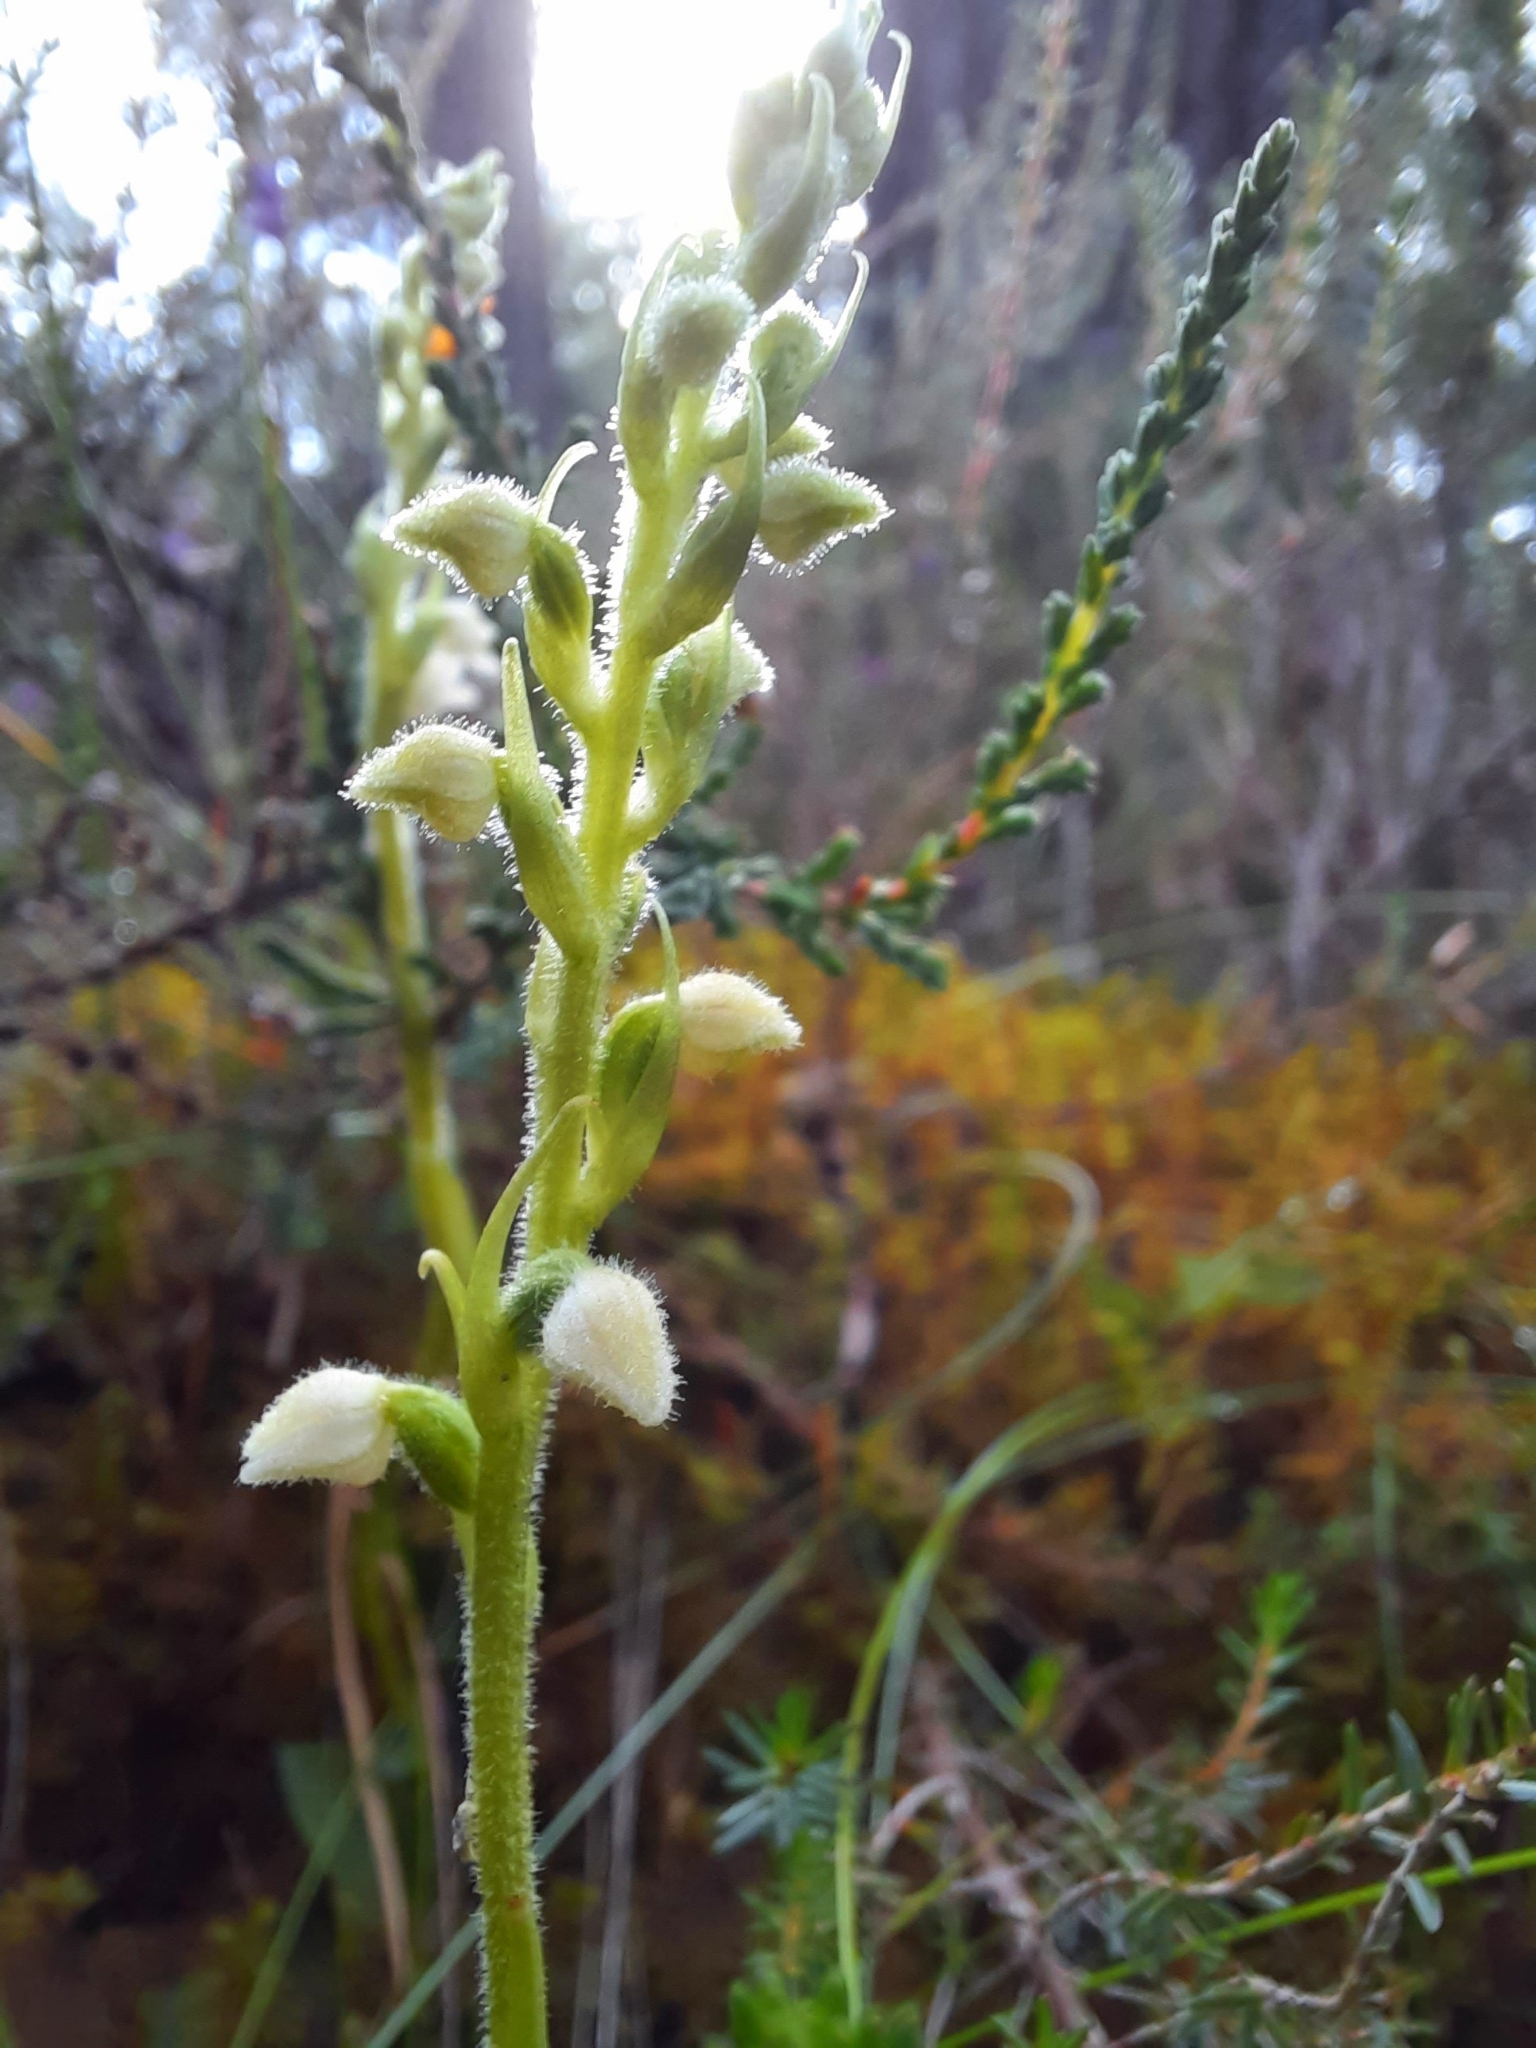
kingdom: Plantae
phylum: Tracheophyta
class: Liliopsida
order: Asparagales
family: Orchidaceae
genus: Goodyera
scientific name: Goodyera repens
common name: Creeping lady's-tresses
